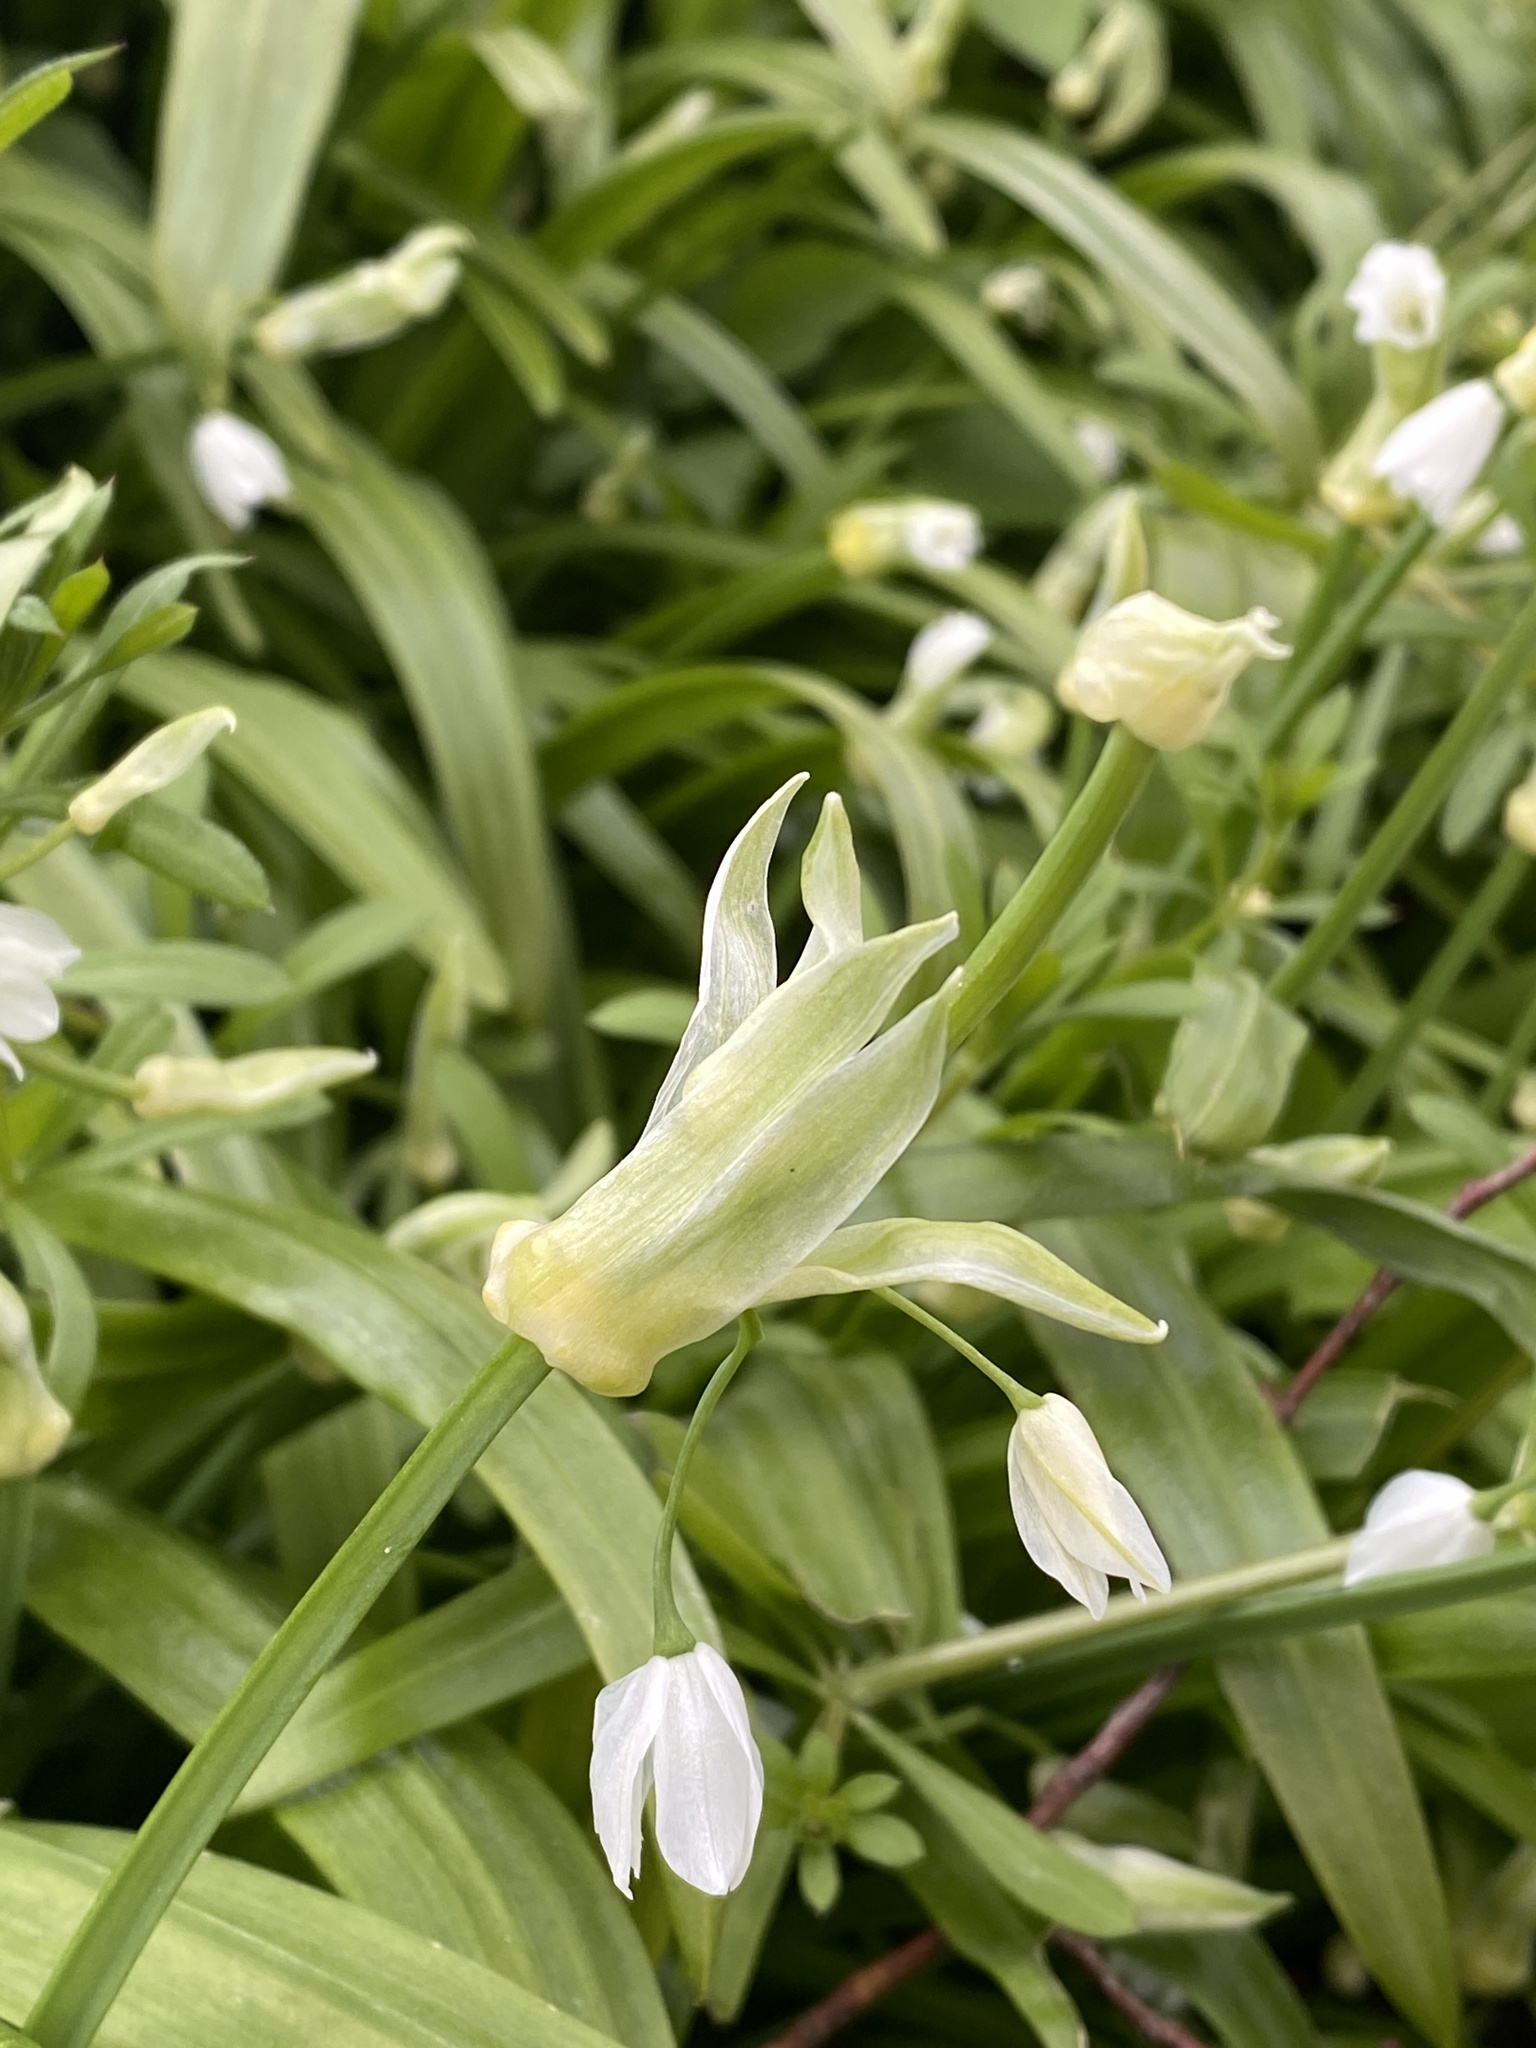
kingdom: Plantae
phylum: Tracheophyta
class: Liliopsida
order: Asparagales
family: Amaryllidaceae
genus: Allium
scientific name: Allium paradoxum
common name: Few-flowered garlic
